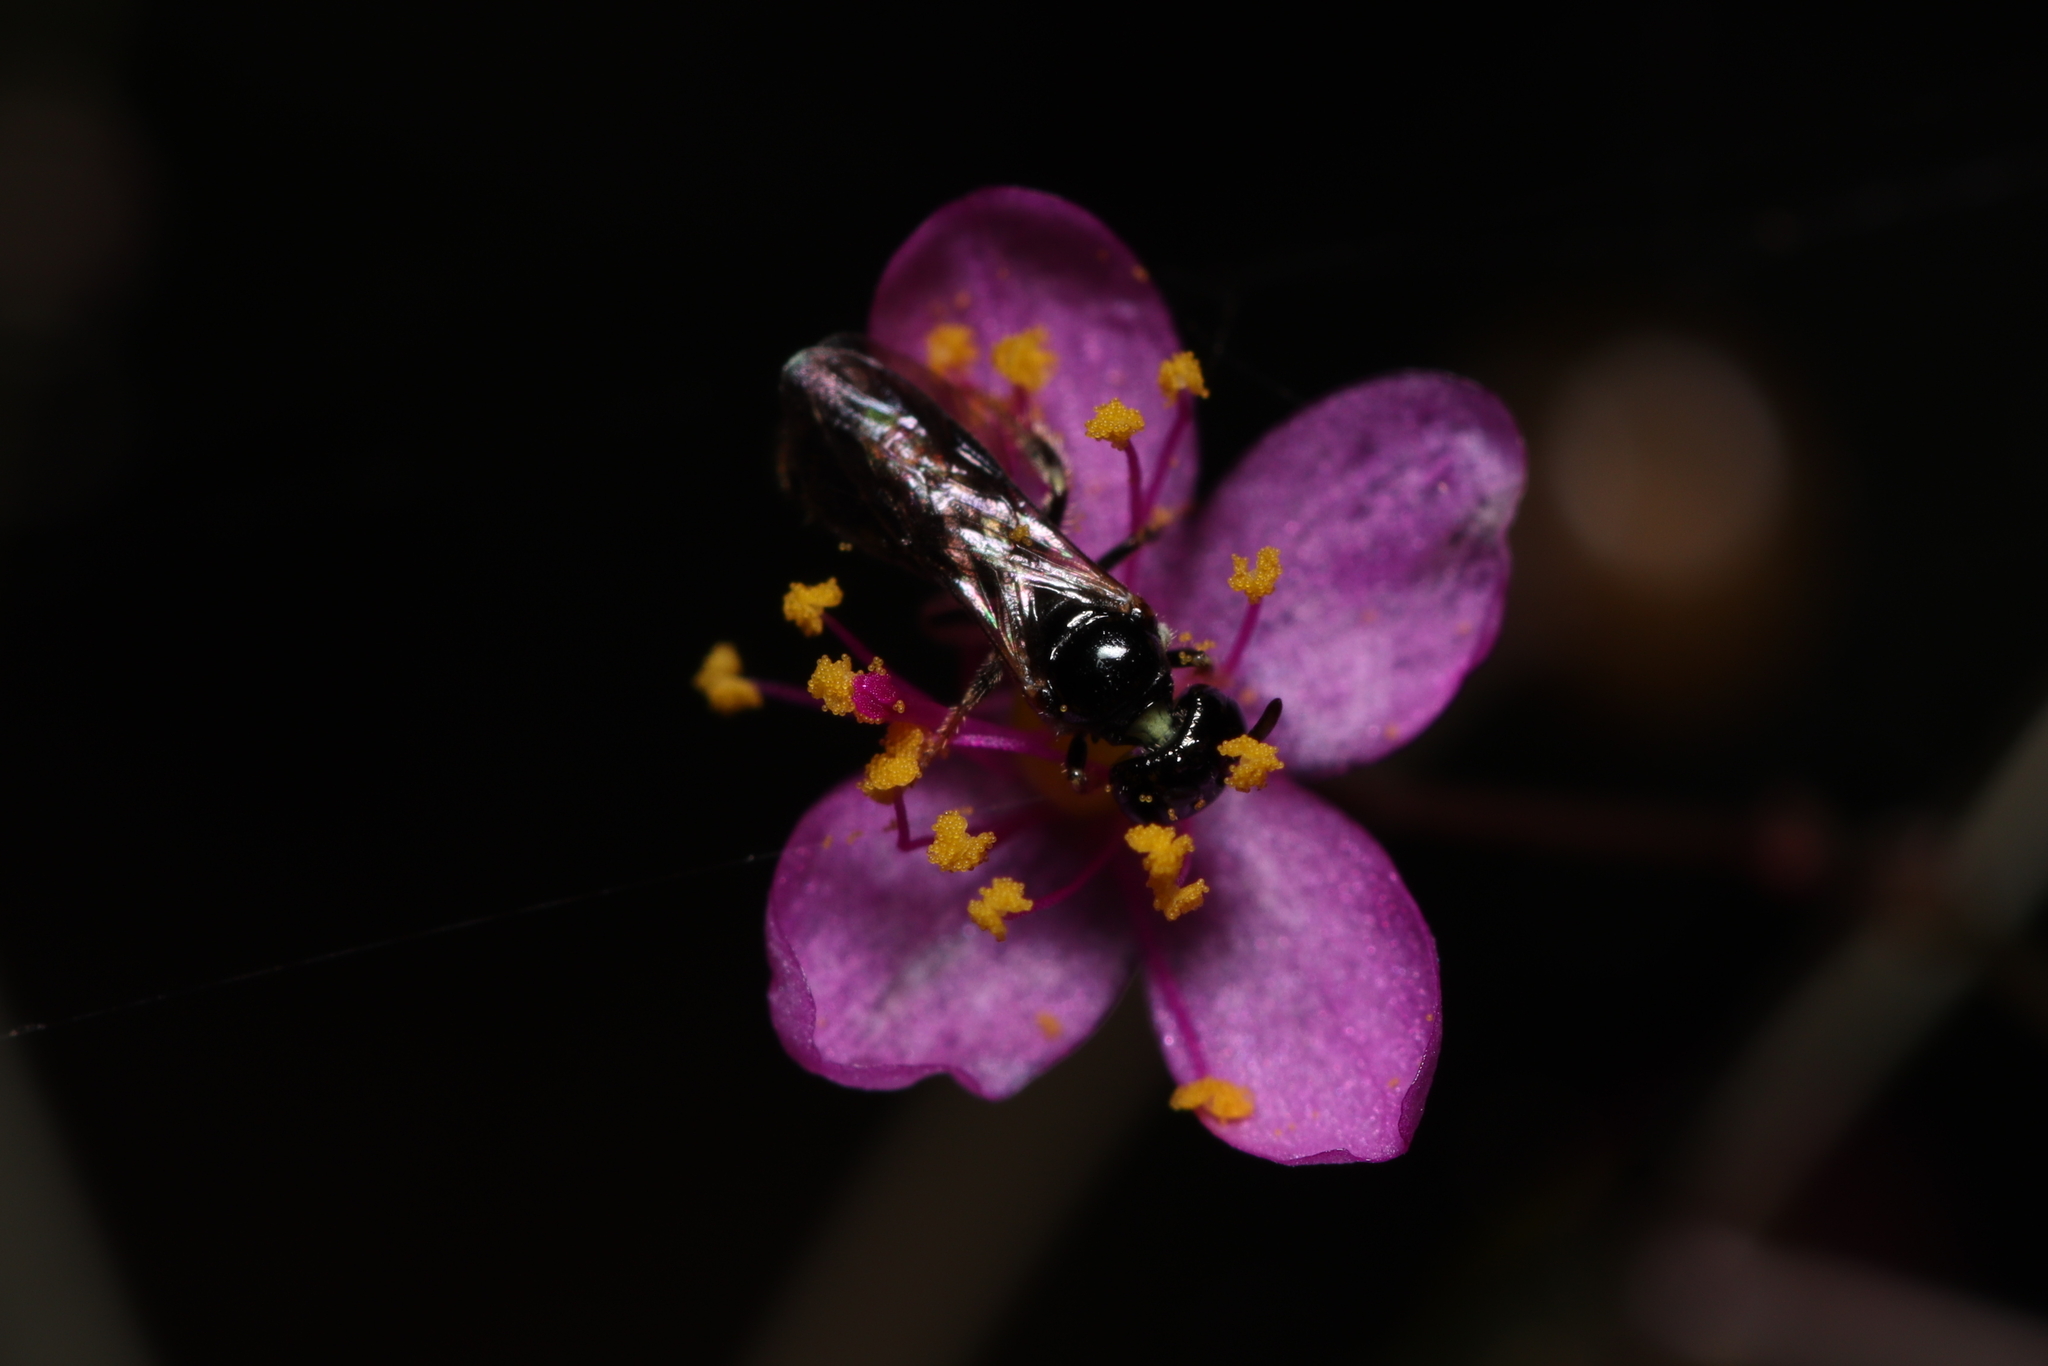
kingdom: Plantae
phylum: Tracheophyta
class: Magnoliopsida
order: Caryophyllales
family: Talinaceae
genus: Talinum
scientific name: Talinum paniculatum
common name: Jewels of opar
